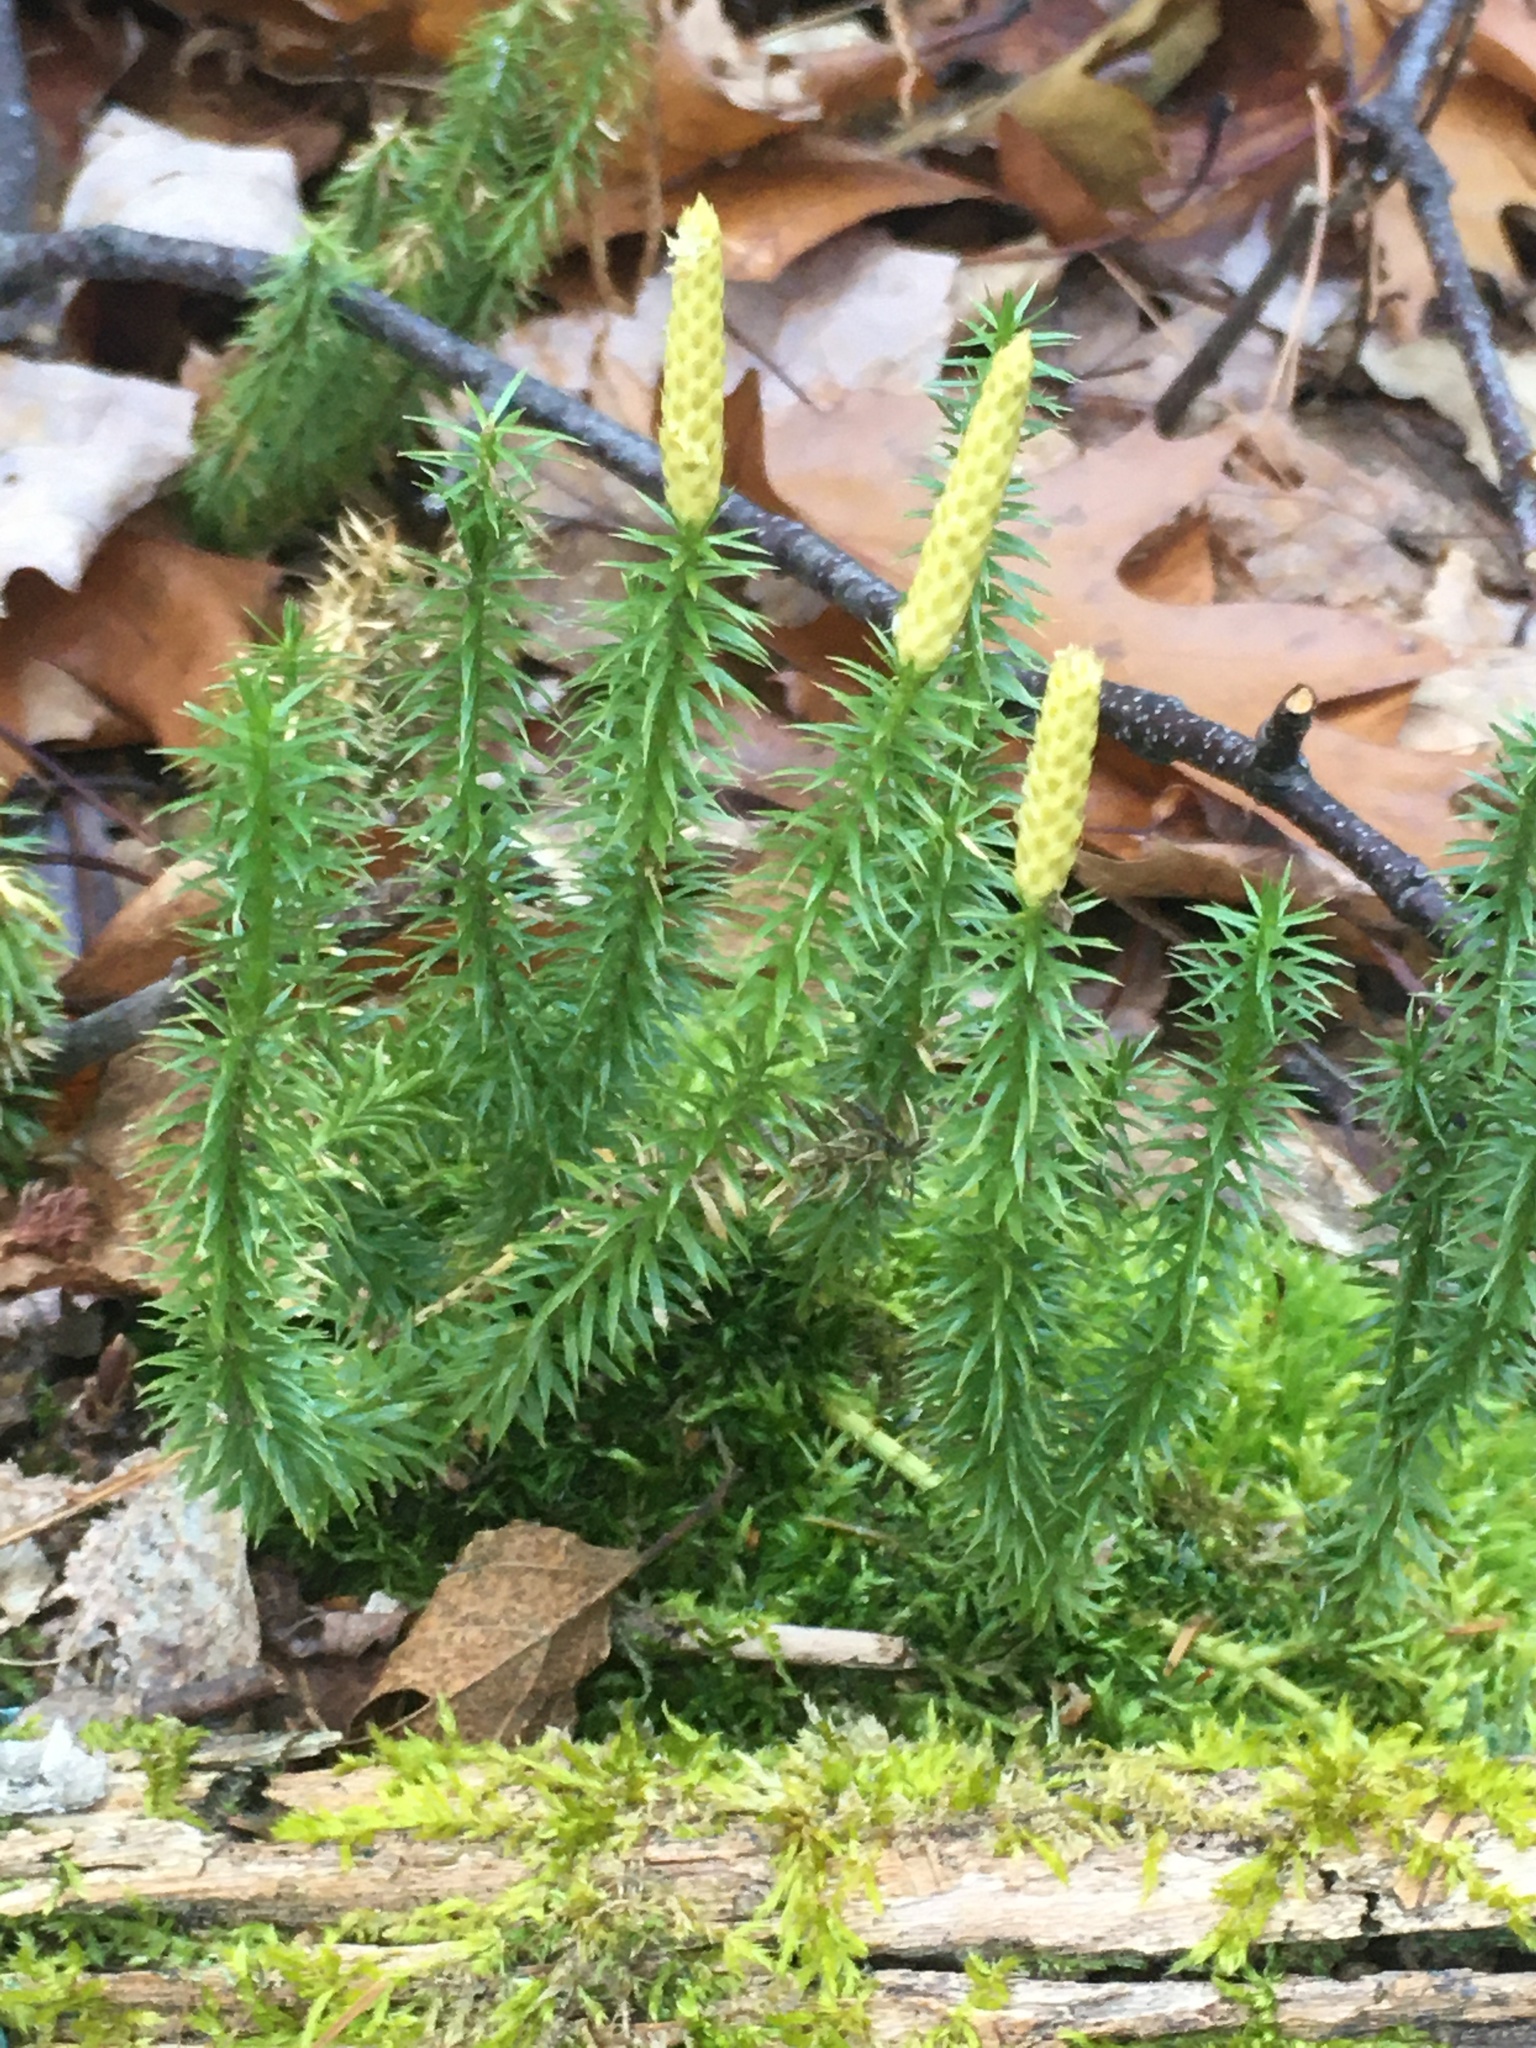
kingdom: Plantae
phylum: Tracheophyta
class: Lycopodiopsida
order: Lycopodiales
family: Lycopodiaceae
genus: Spinulum
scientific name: Spinulum annotinum
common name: Interrupted club-moss
